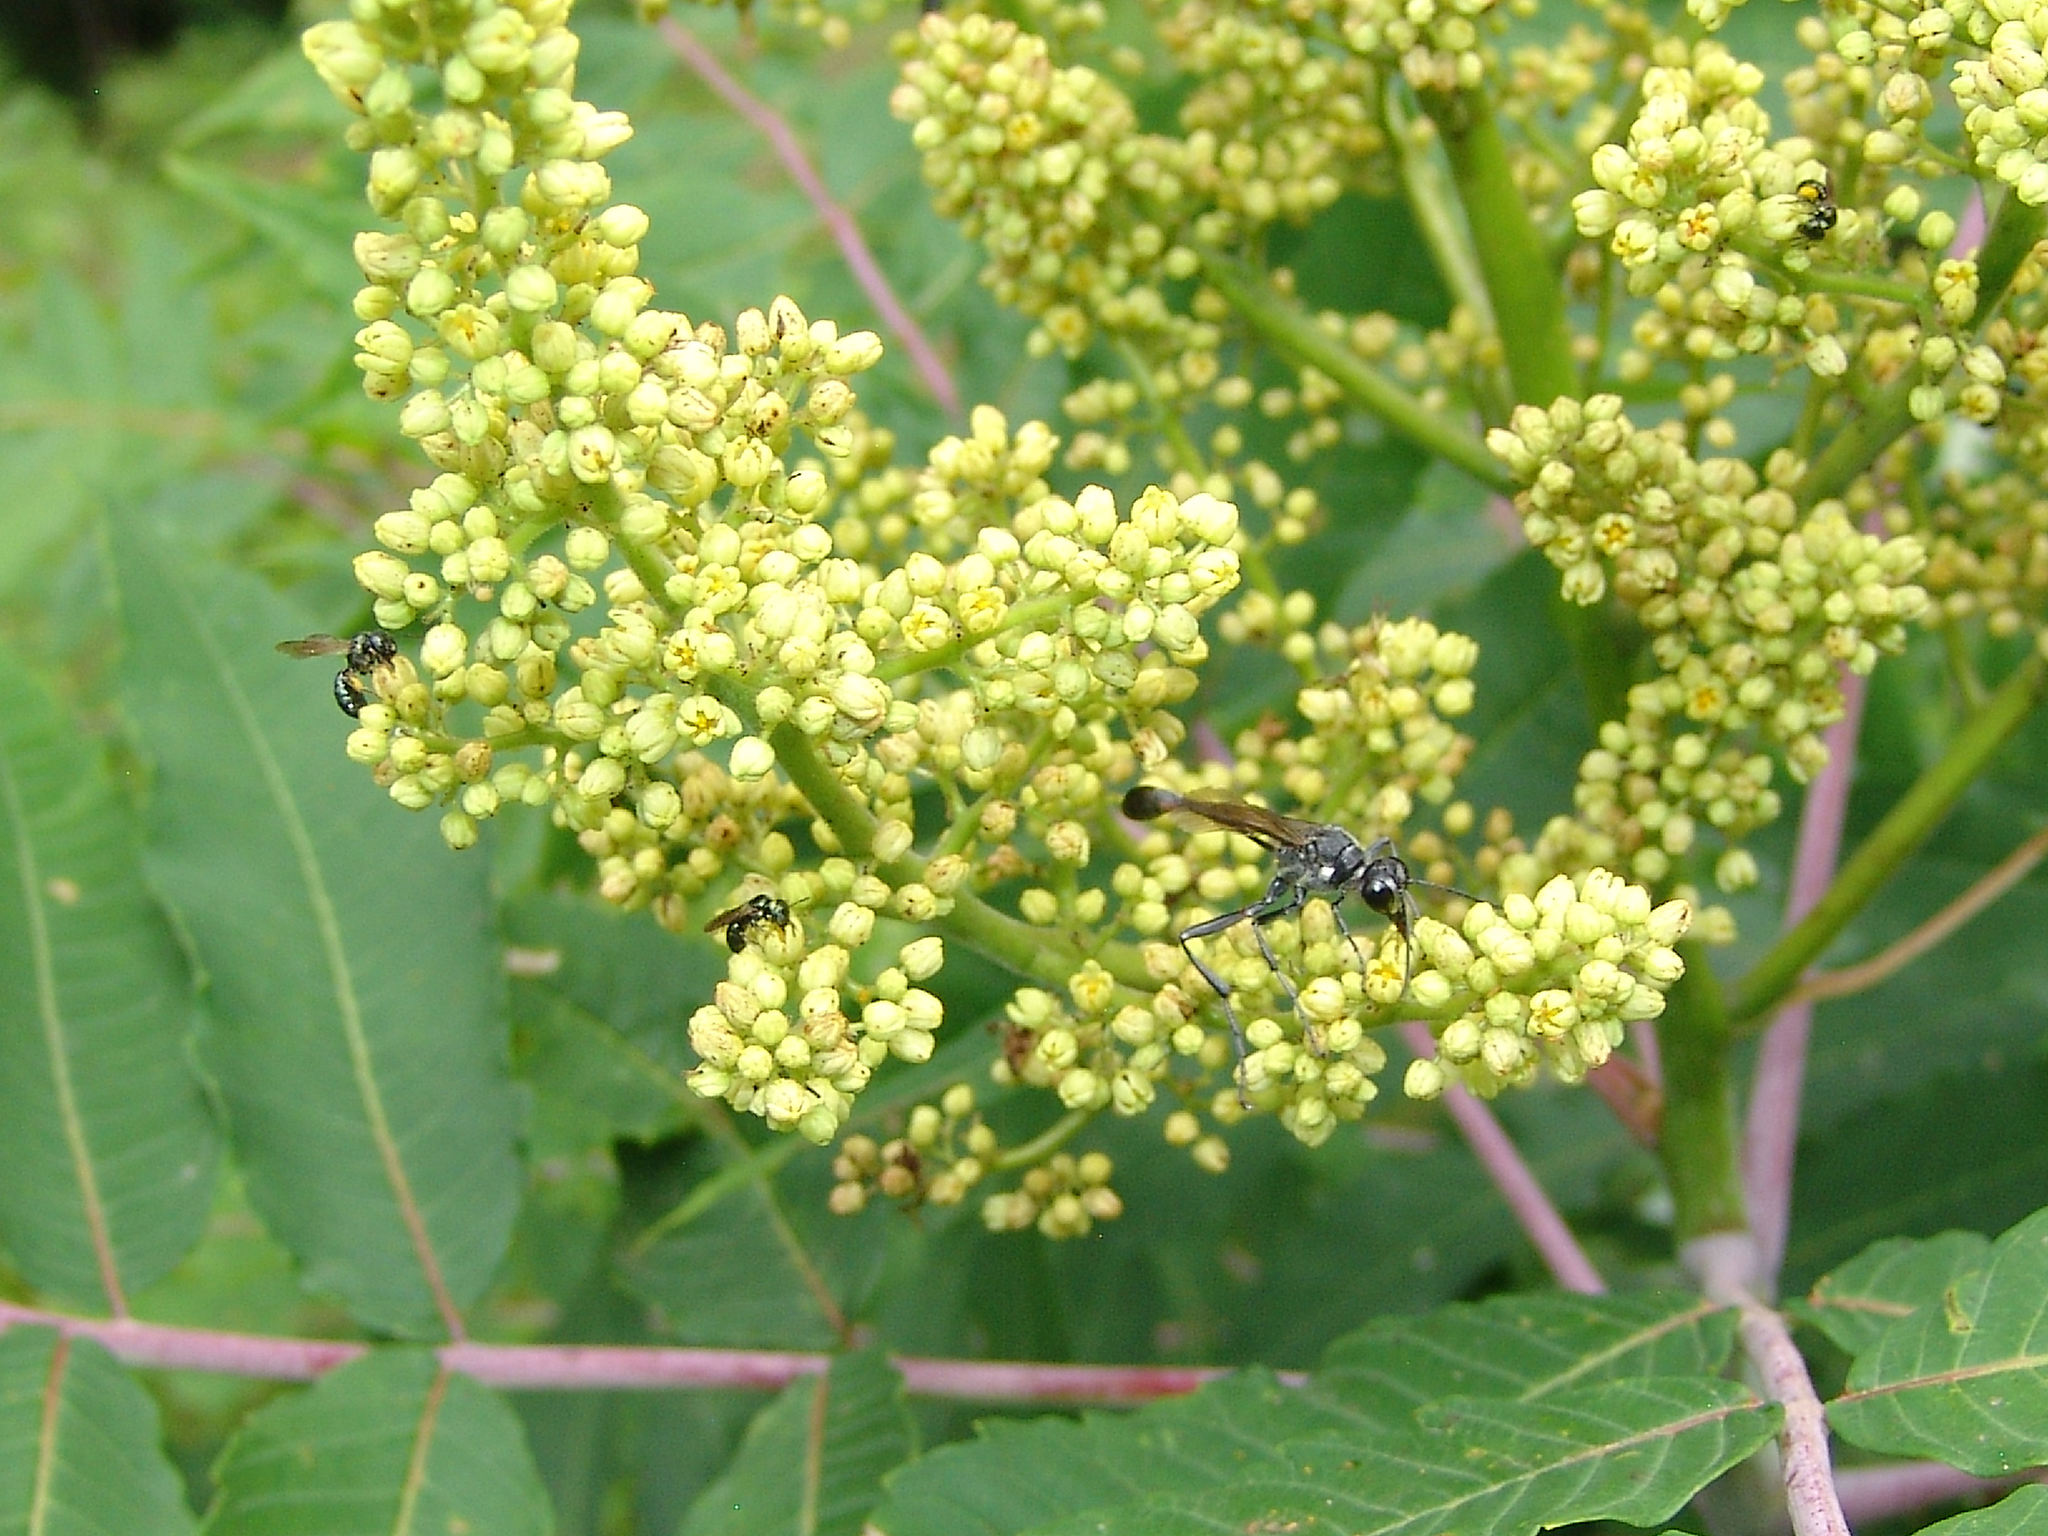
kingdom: Animalia
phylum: Arthropoda
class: Insecta
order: Hymenoptera
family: Sphecidae
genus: Eremnophila
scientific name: Eremnophila aureonotata
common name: Gold-marked thread-waisted wasp
